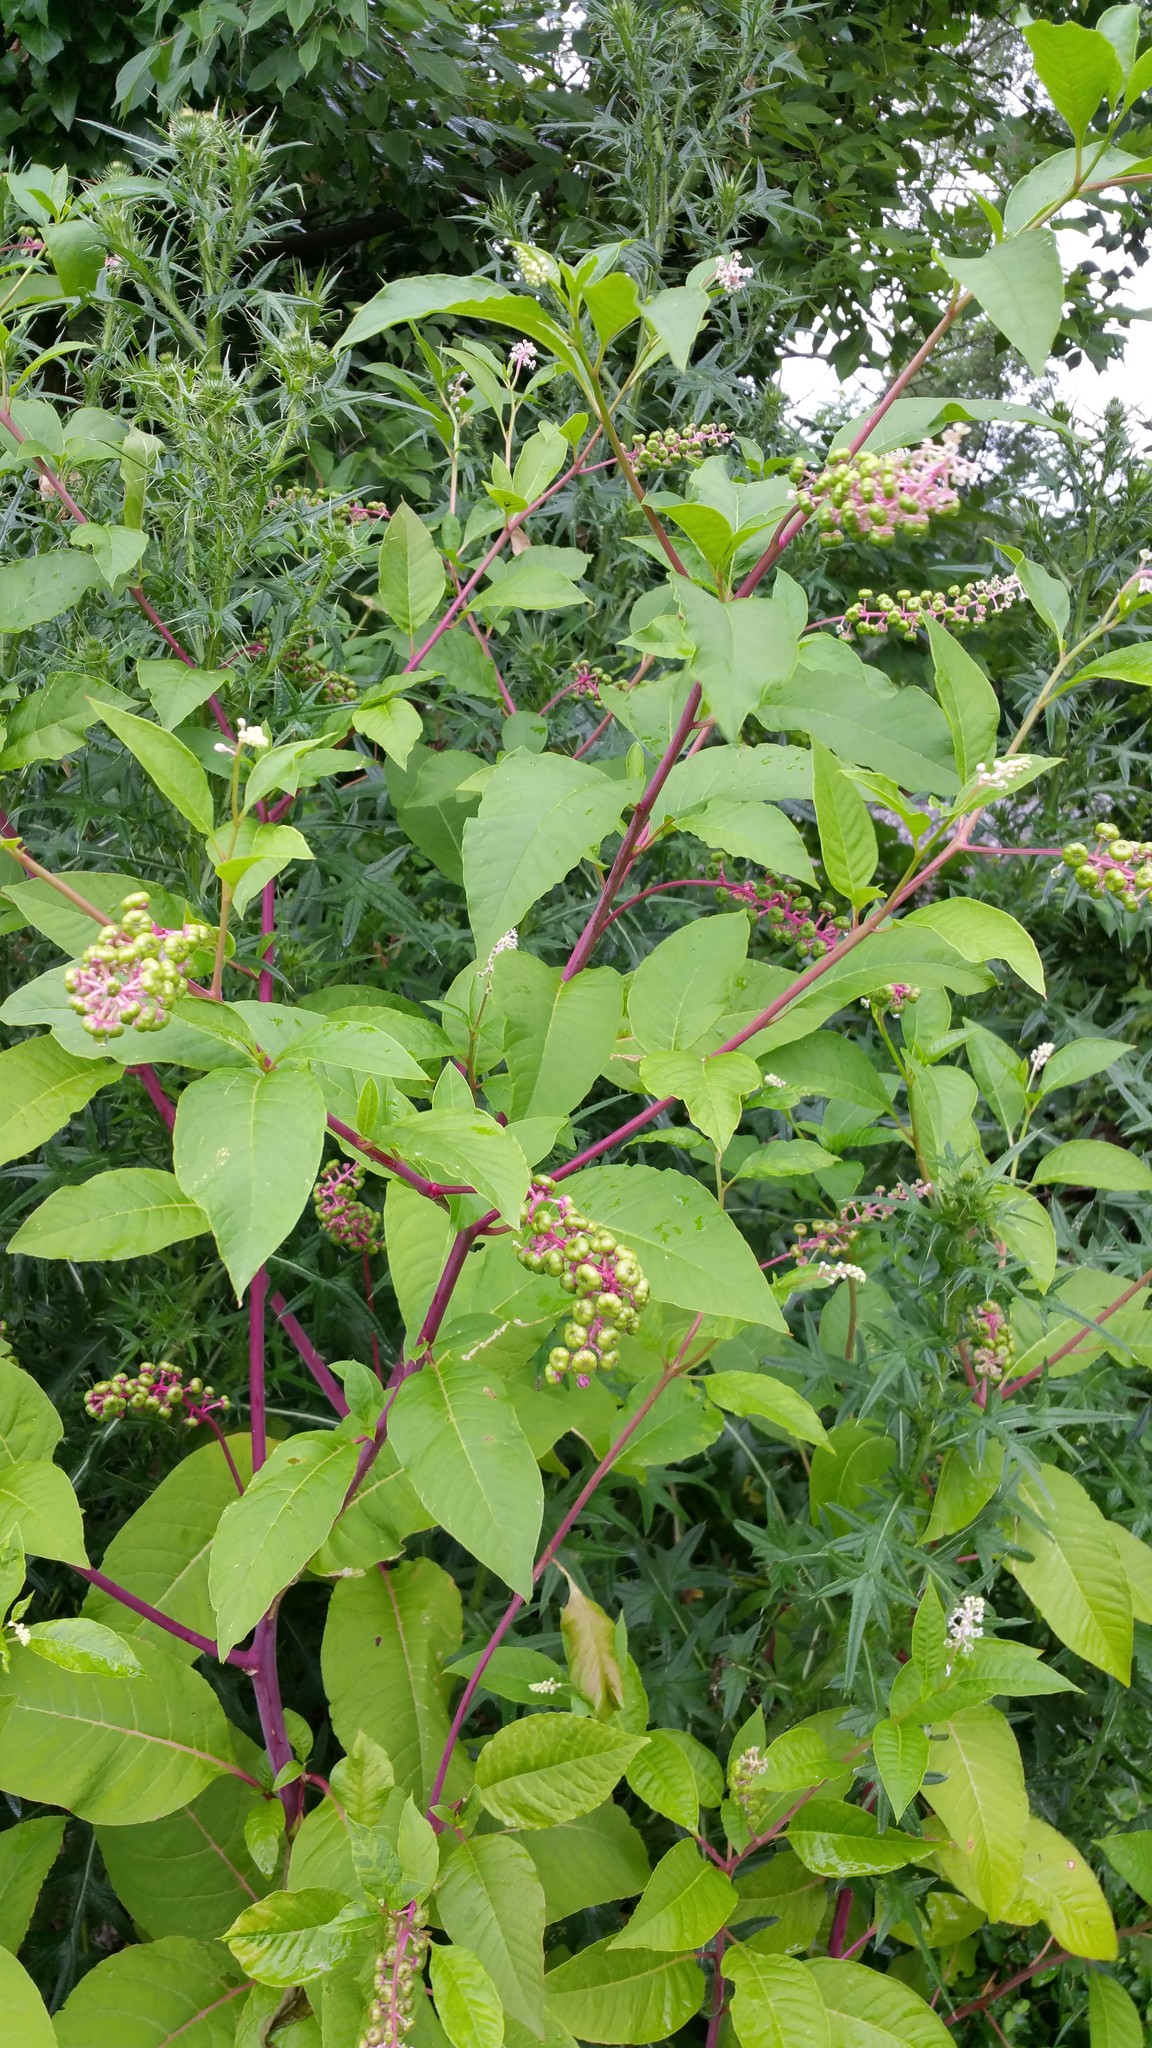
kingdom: Plantae
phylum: Tracheophyta
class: Magnoliopsida
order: Caryophyllales
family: Phytolaccaceae
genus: Phytolacca
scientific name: Phytolacca americana
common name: American pokeweed
